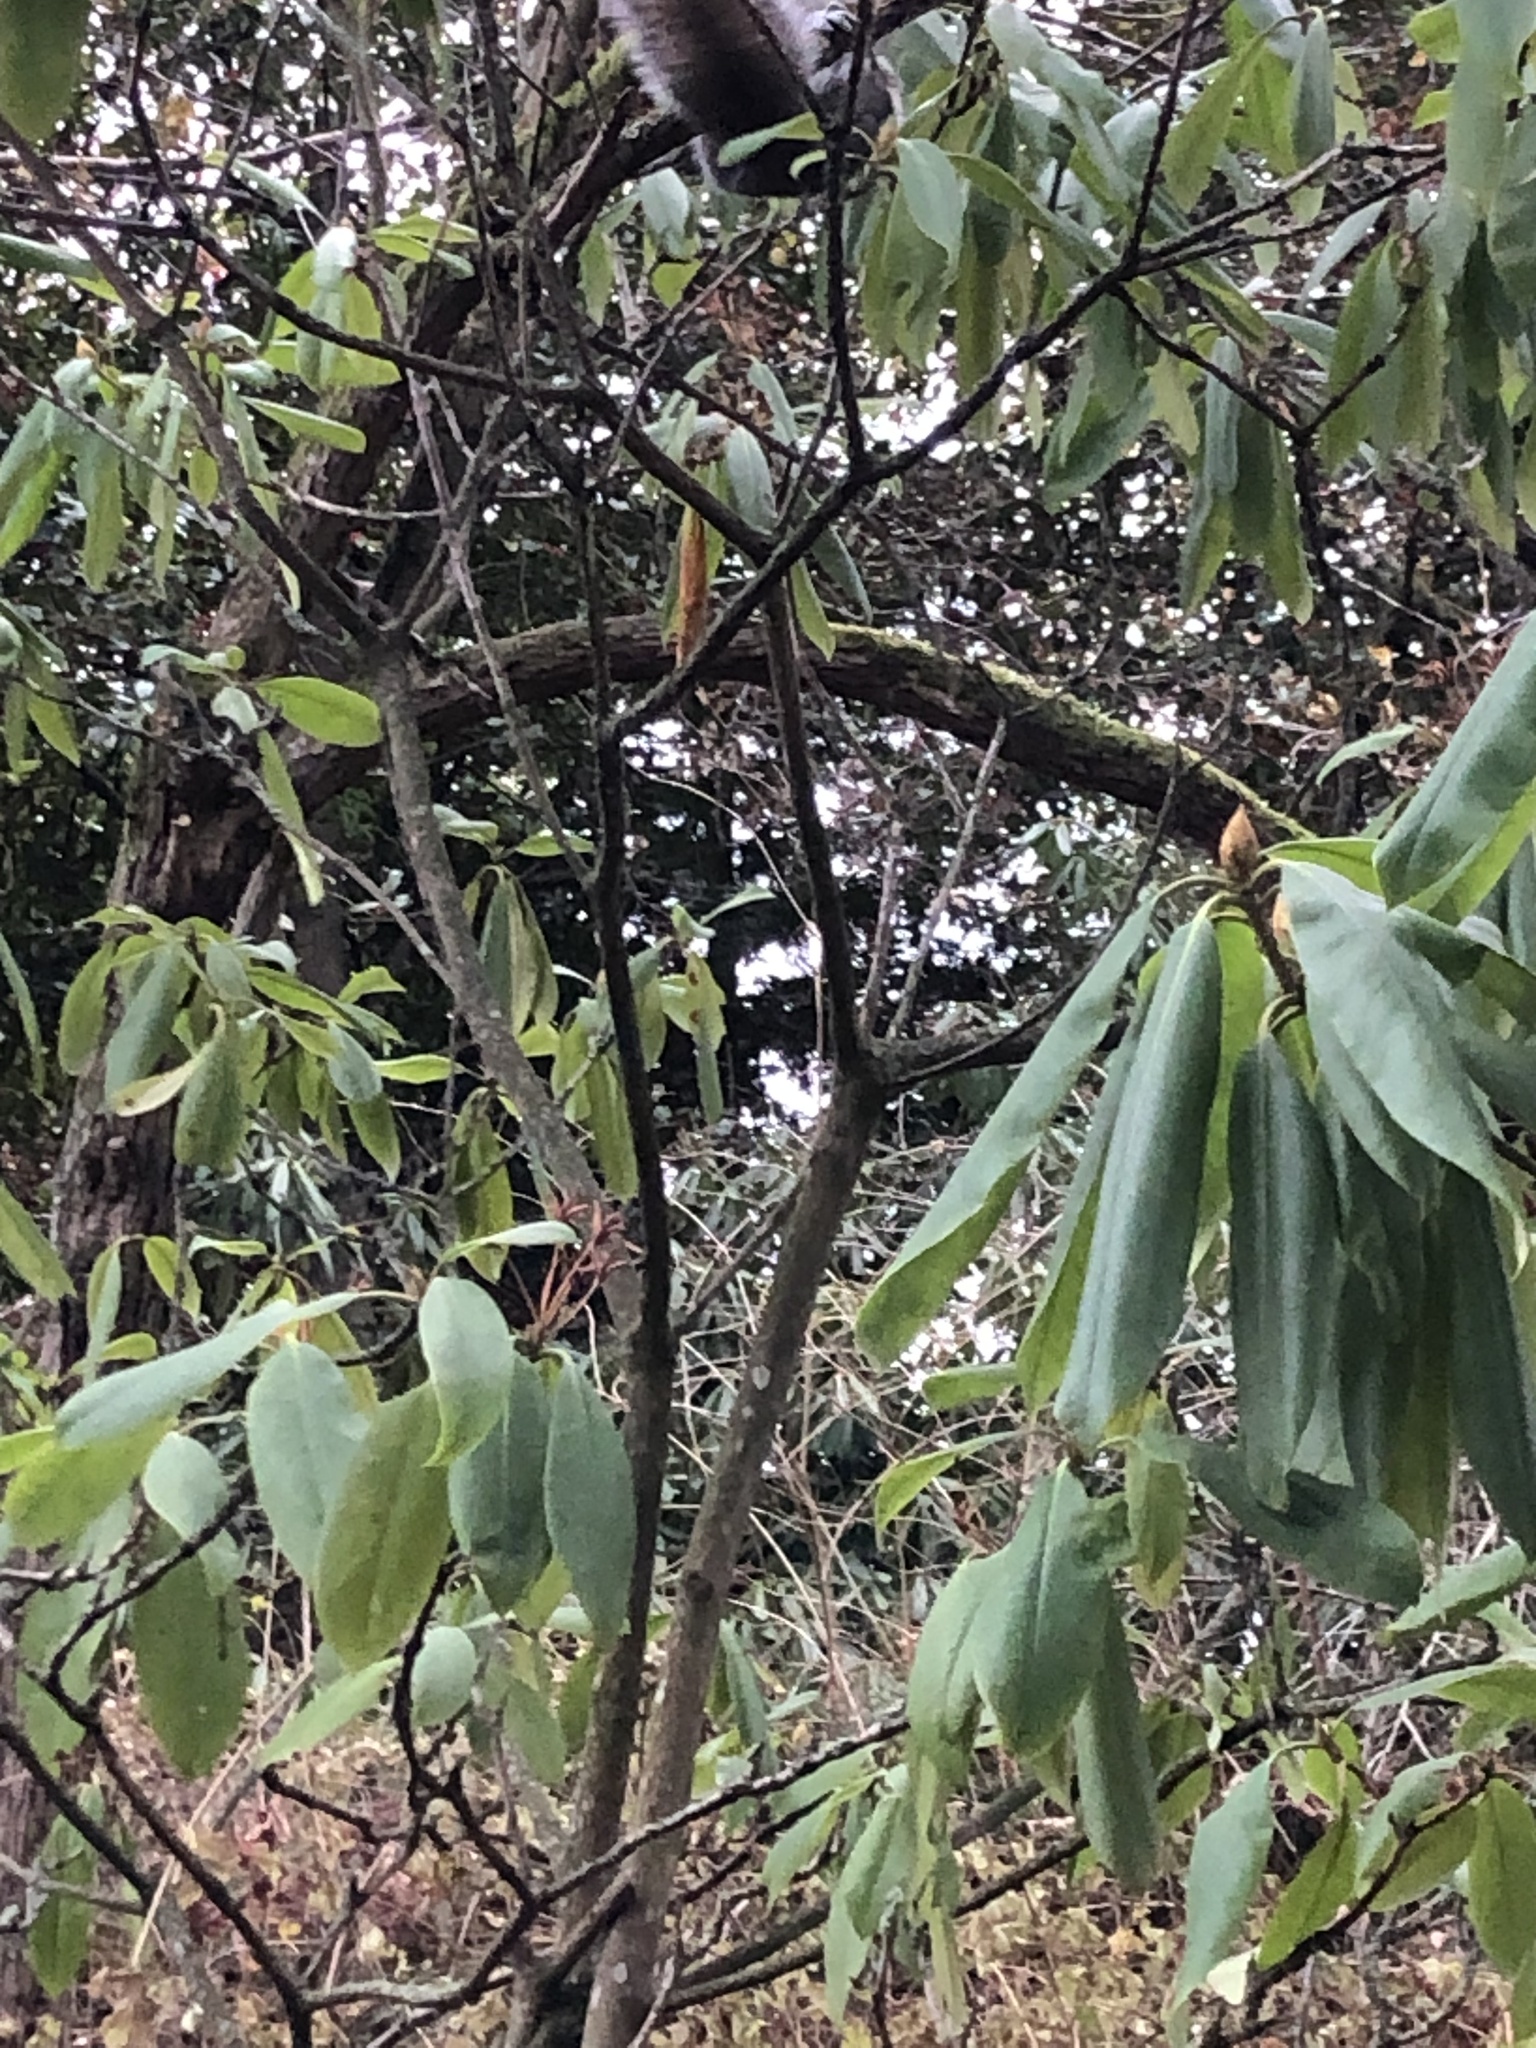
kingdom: Animalia
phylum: Chordata
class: Mammalia
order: Rodentia
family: Sciuridae
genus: Sciurus
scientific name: Sciurus carolinensis
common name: Eastern gray squirrel
